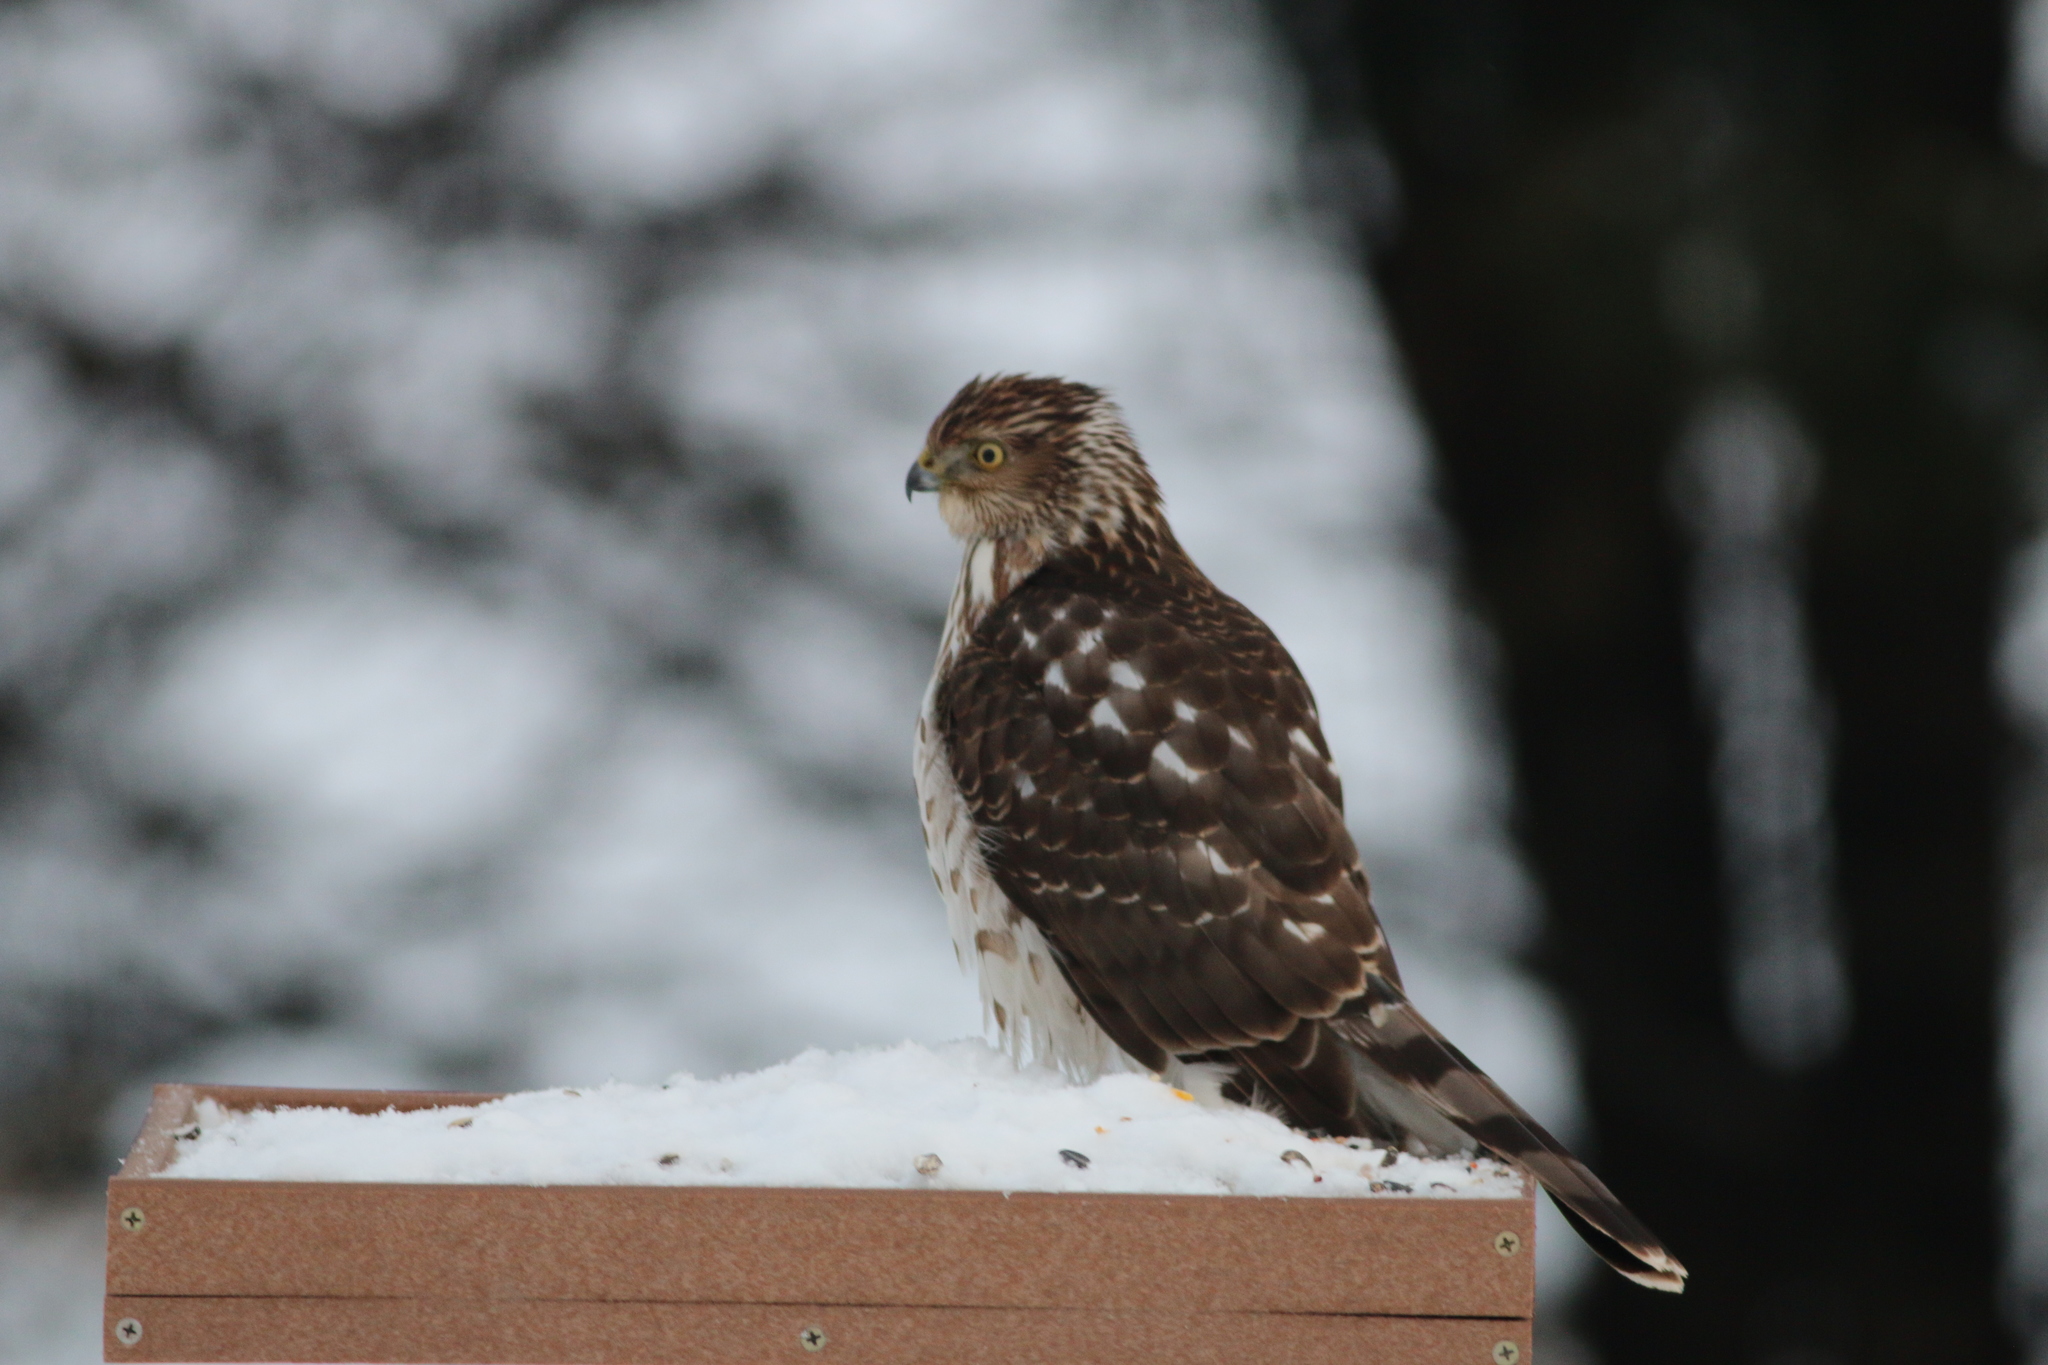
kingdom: Animalia
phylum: Chordata
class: Aves
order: Accipitriformes
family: Accipitridae
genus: Accipiter
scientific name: Accipiter cooperii
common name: Cooper's hawk
